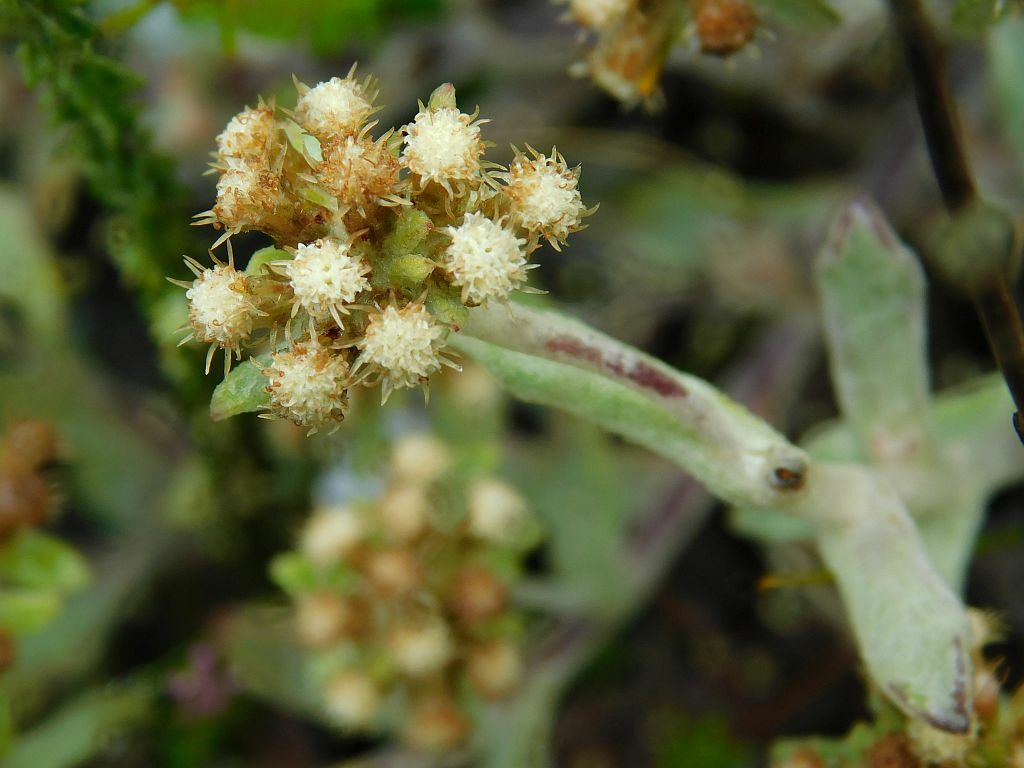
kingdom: Plantae
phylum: Tracheophyta
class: Magnoliopsida
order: Asterales
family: Asteraceae
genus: Helichrysum
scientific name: Helichrysum spiralepis
